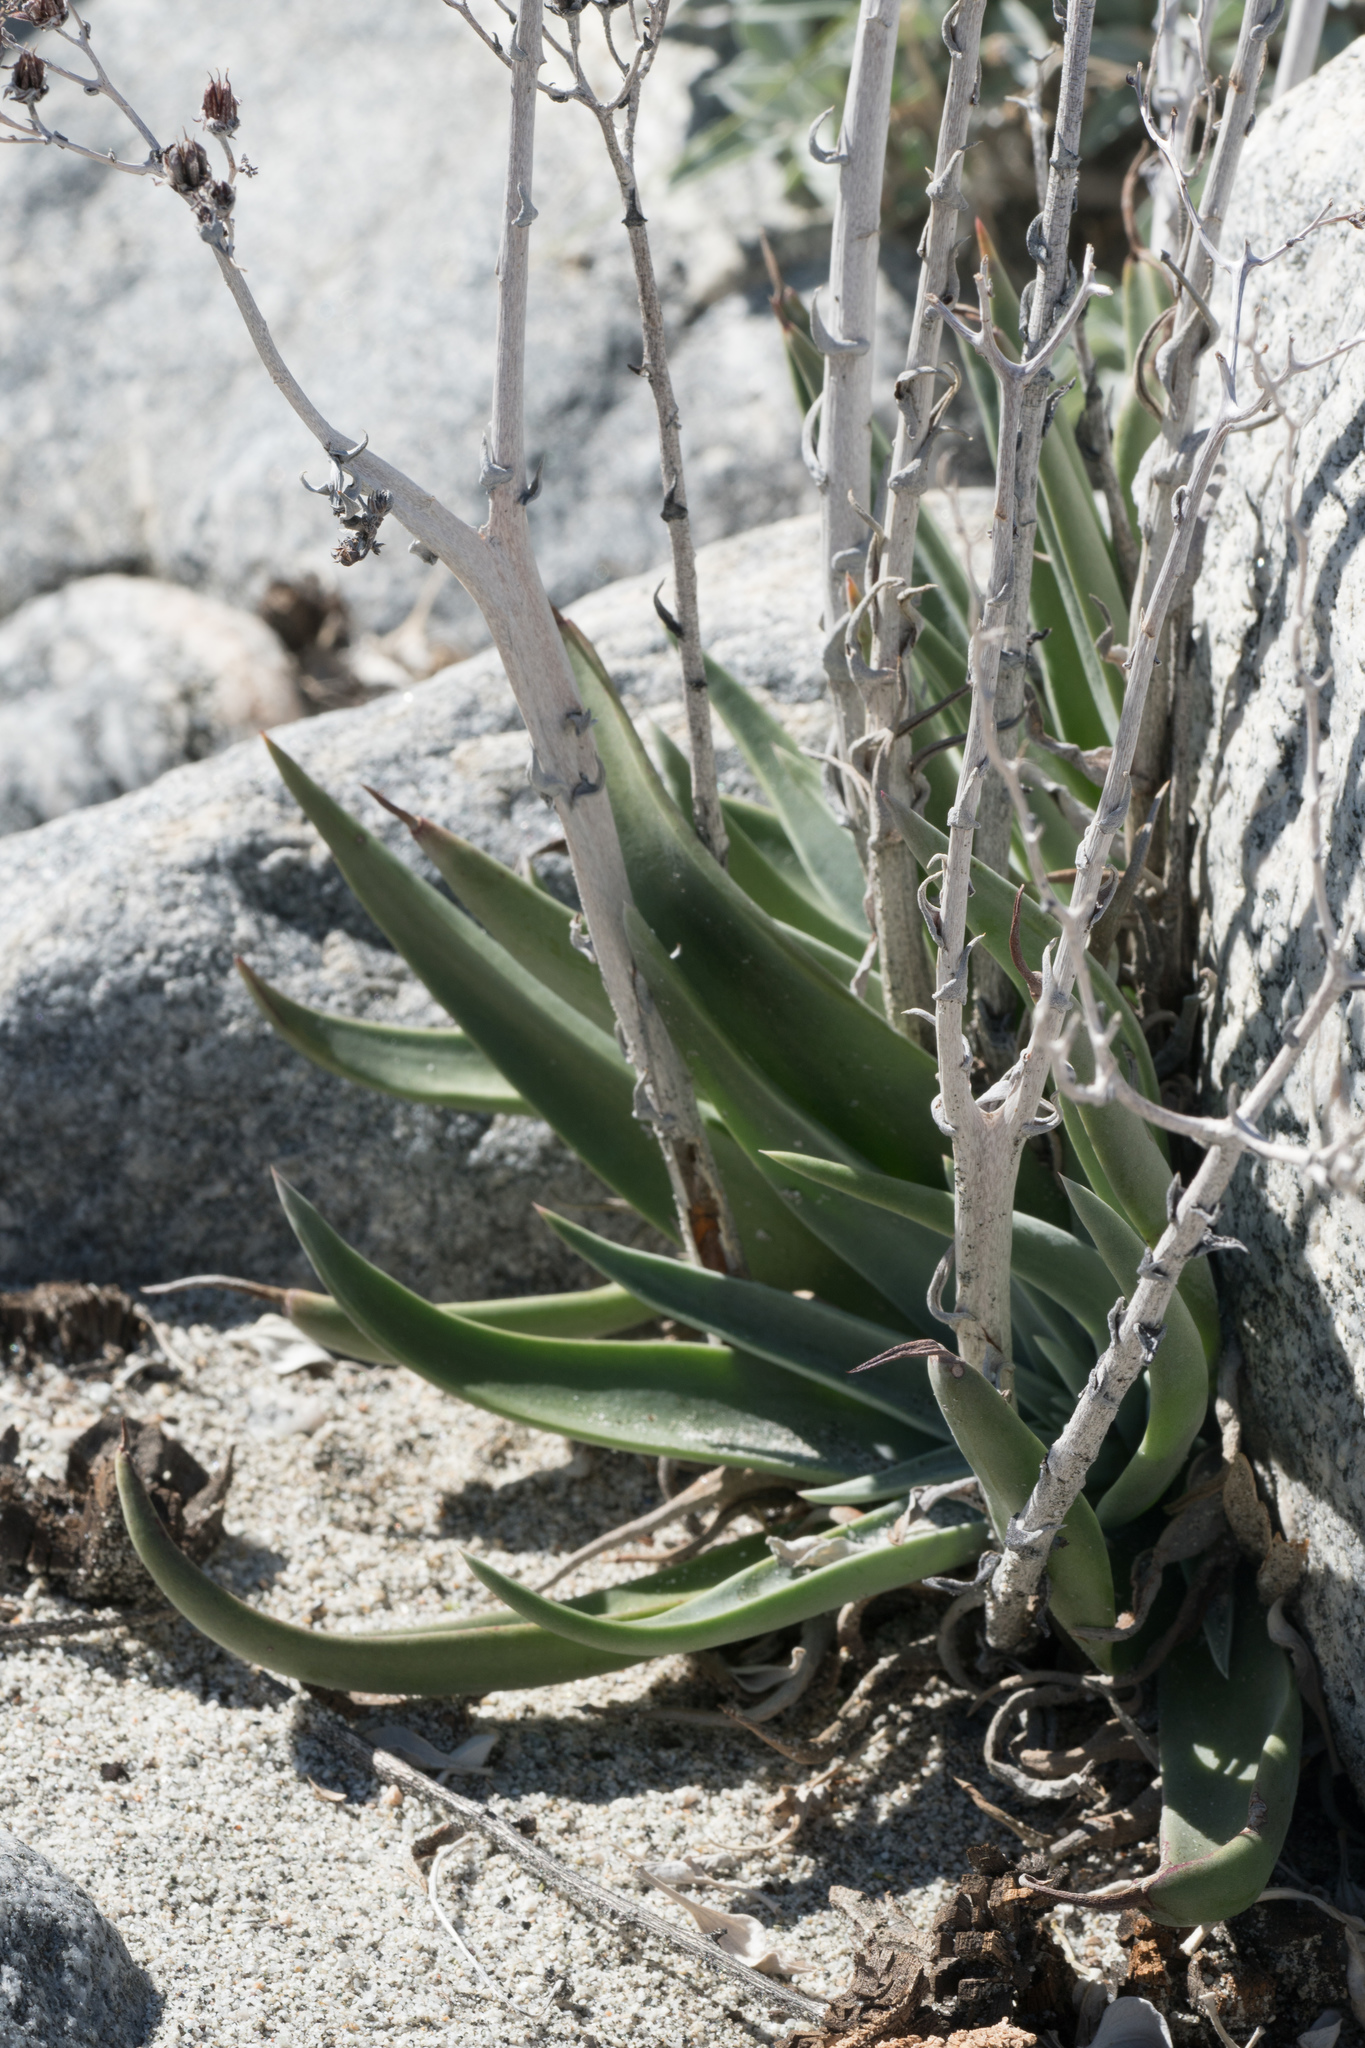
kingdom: Plantae
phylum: Tracheophyta
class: Magnoliopsida
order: Saxifragales
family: Crassulaceae
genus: Dudleya
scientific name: Dudleya lanceolata
